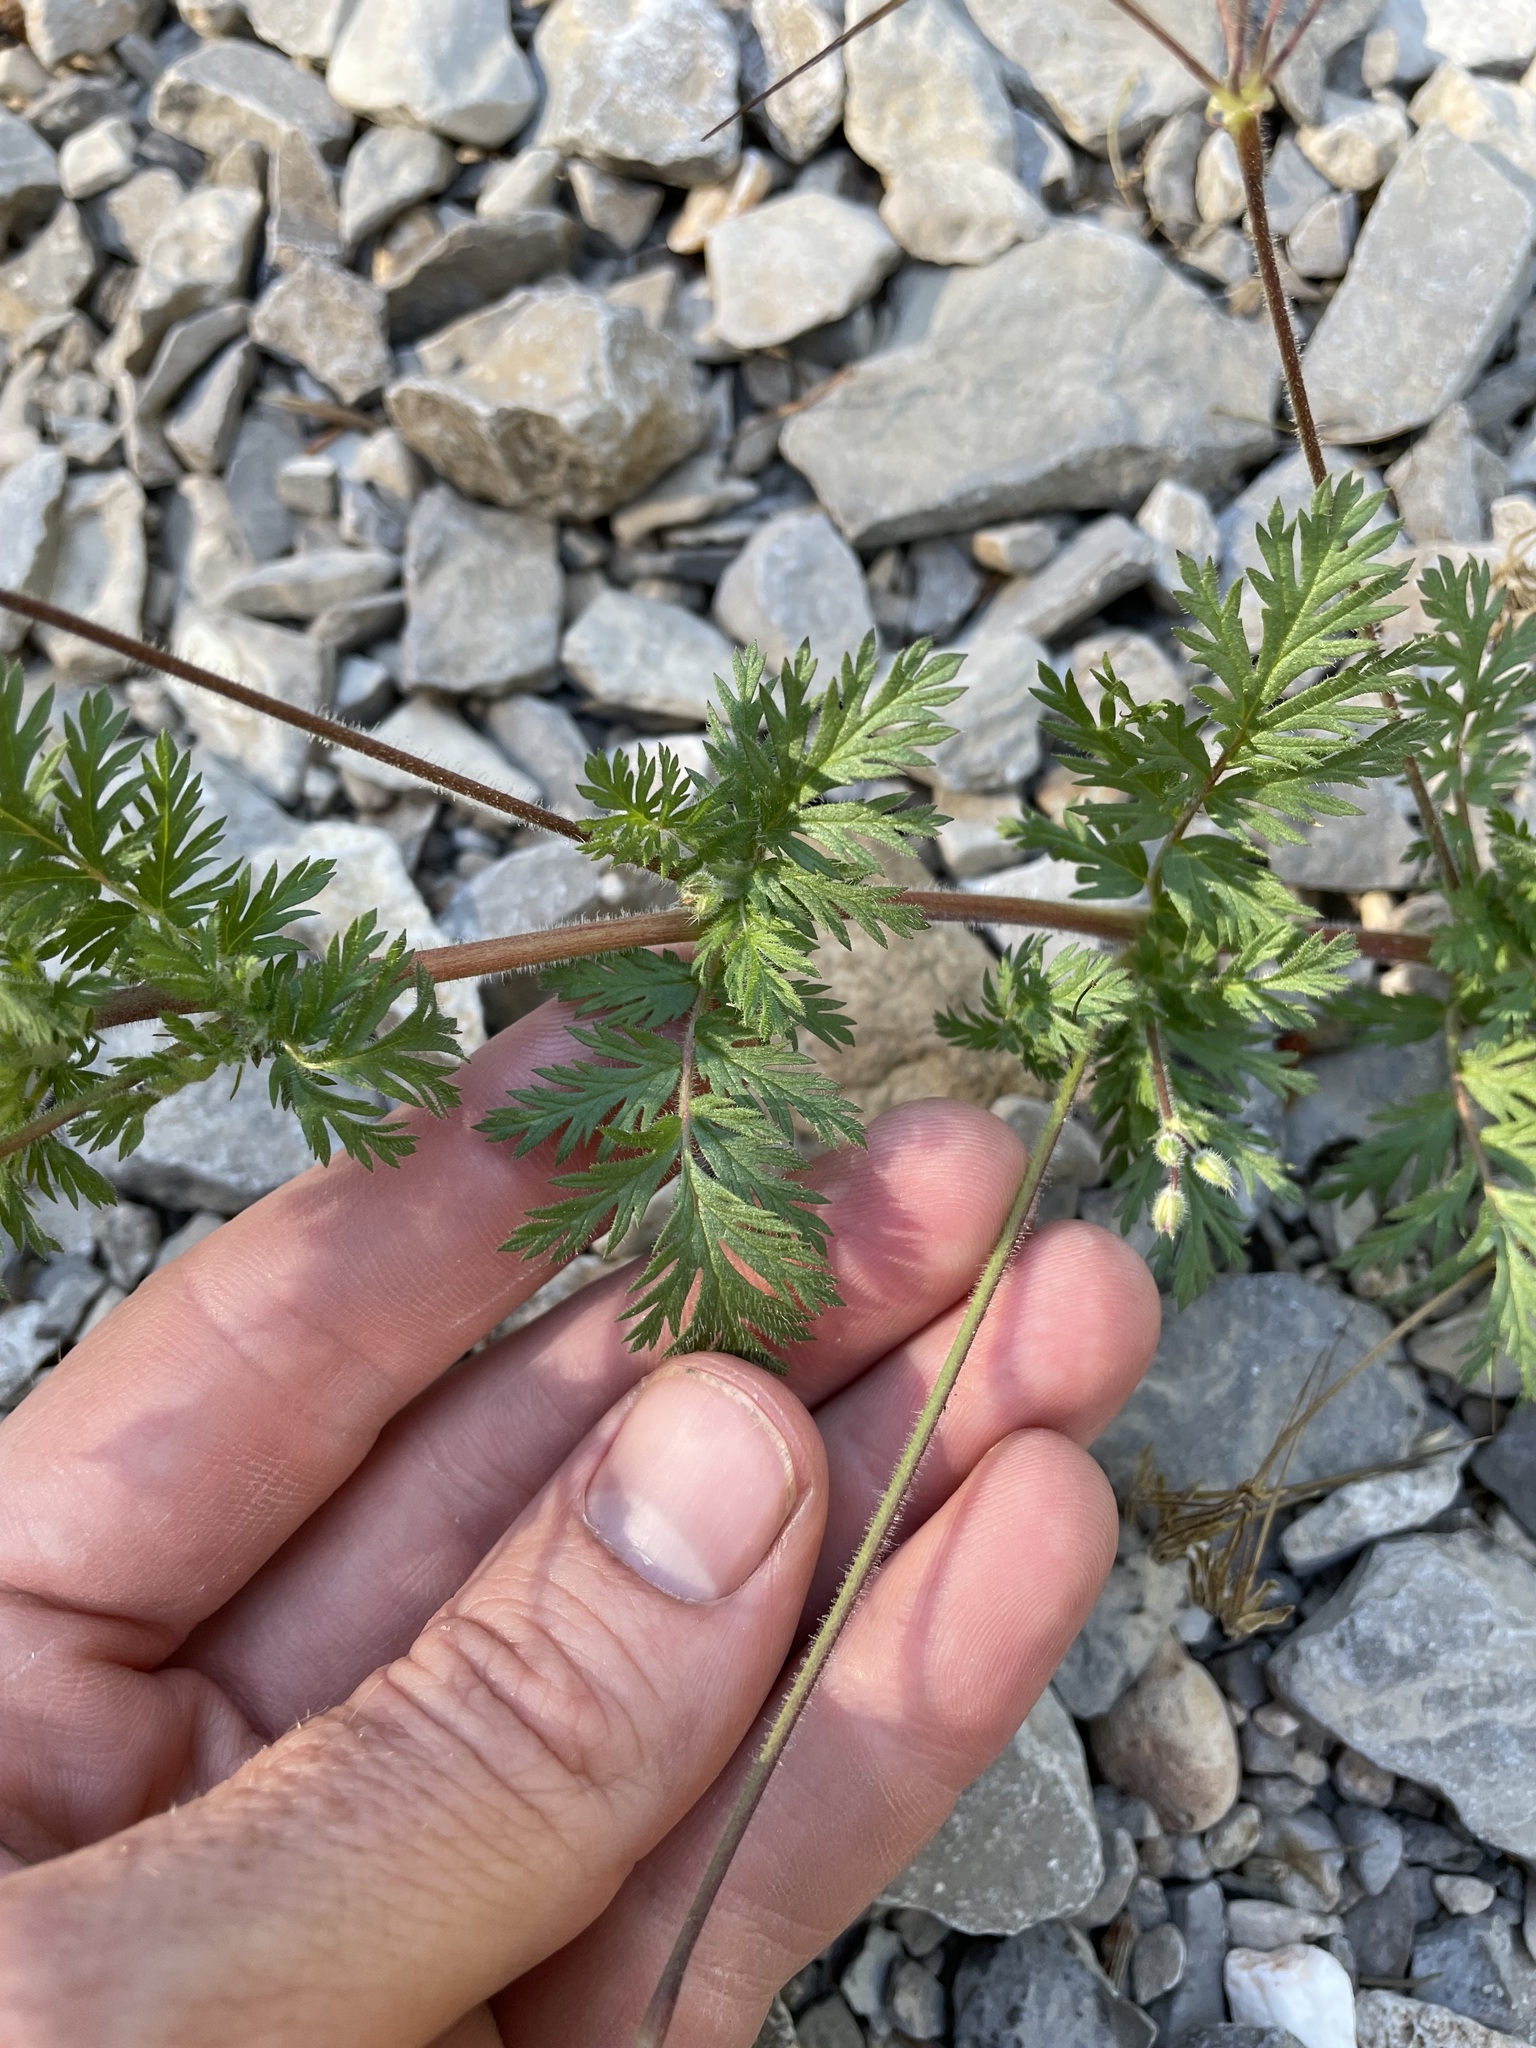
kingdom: Plantae
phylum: Tracheophyta
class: Magnoliopsida
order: Geraniales
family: Geraniaceae
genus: Erodium
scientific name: Erodium cicutarium
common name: Common stork's-bill
